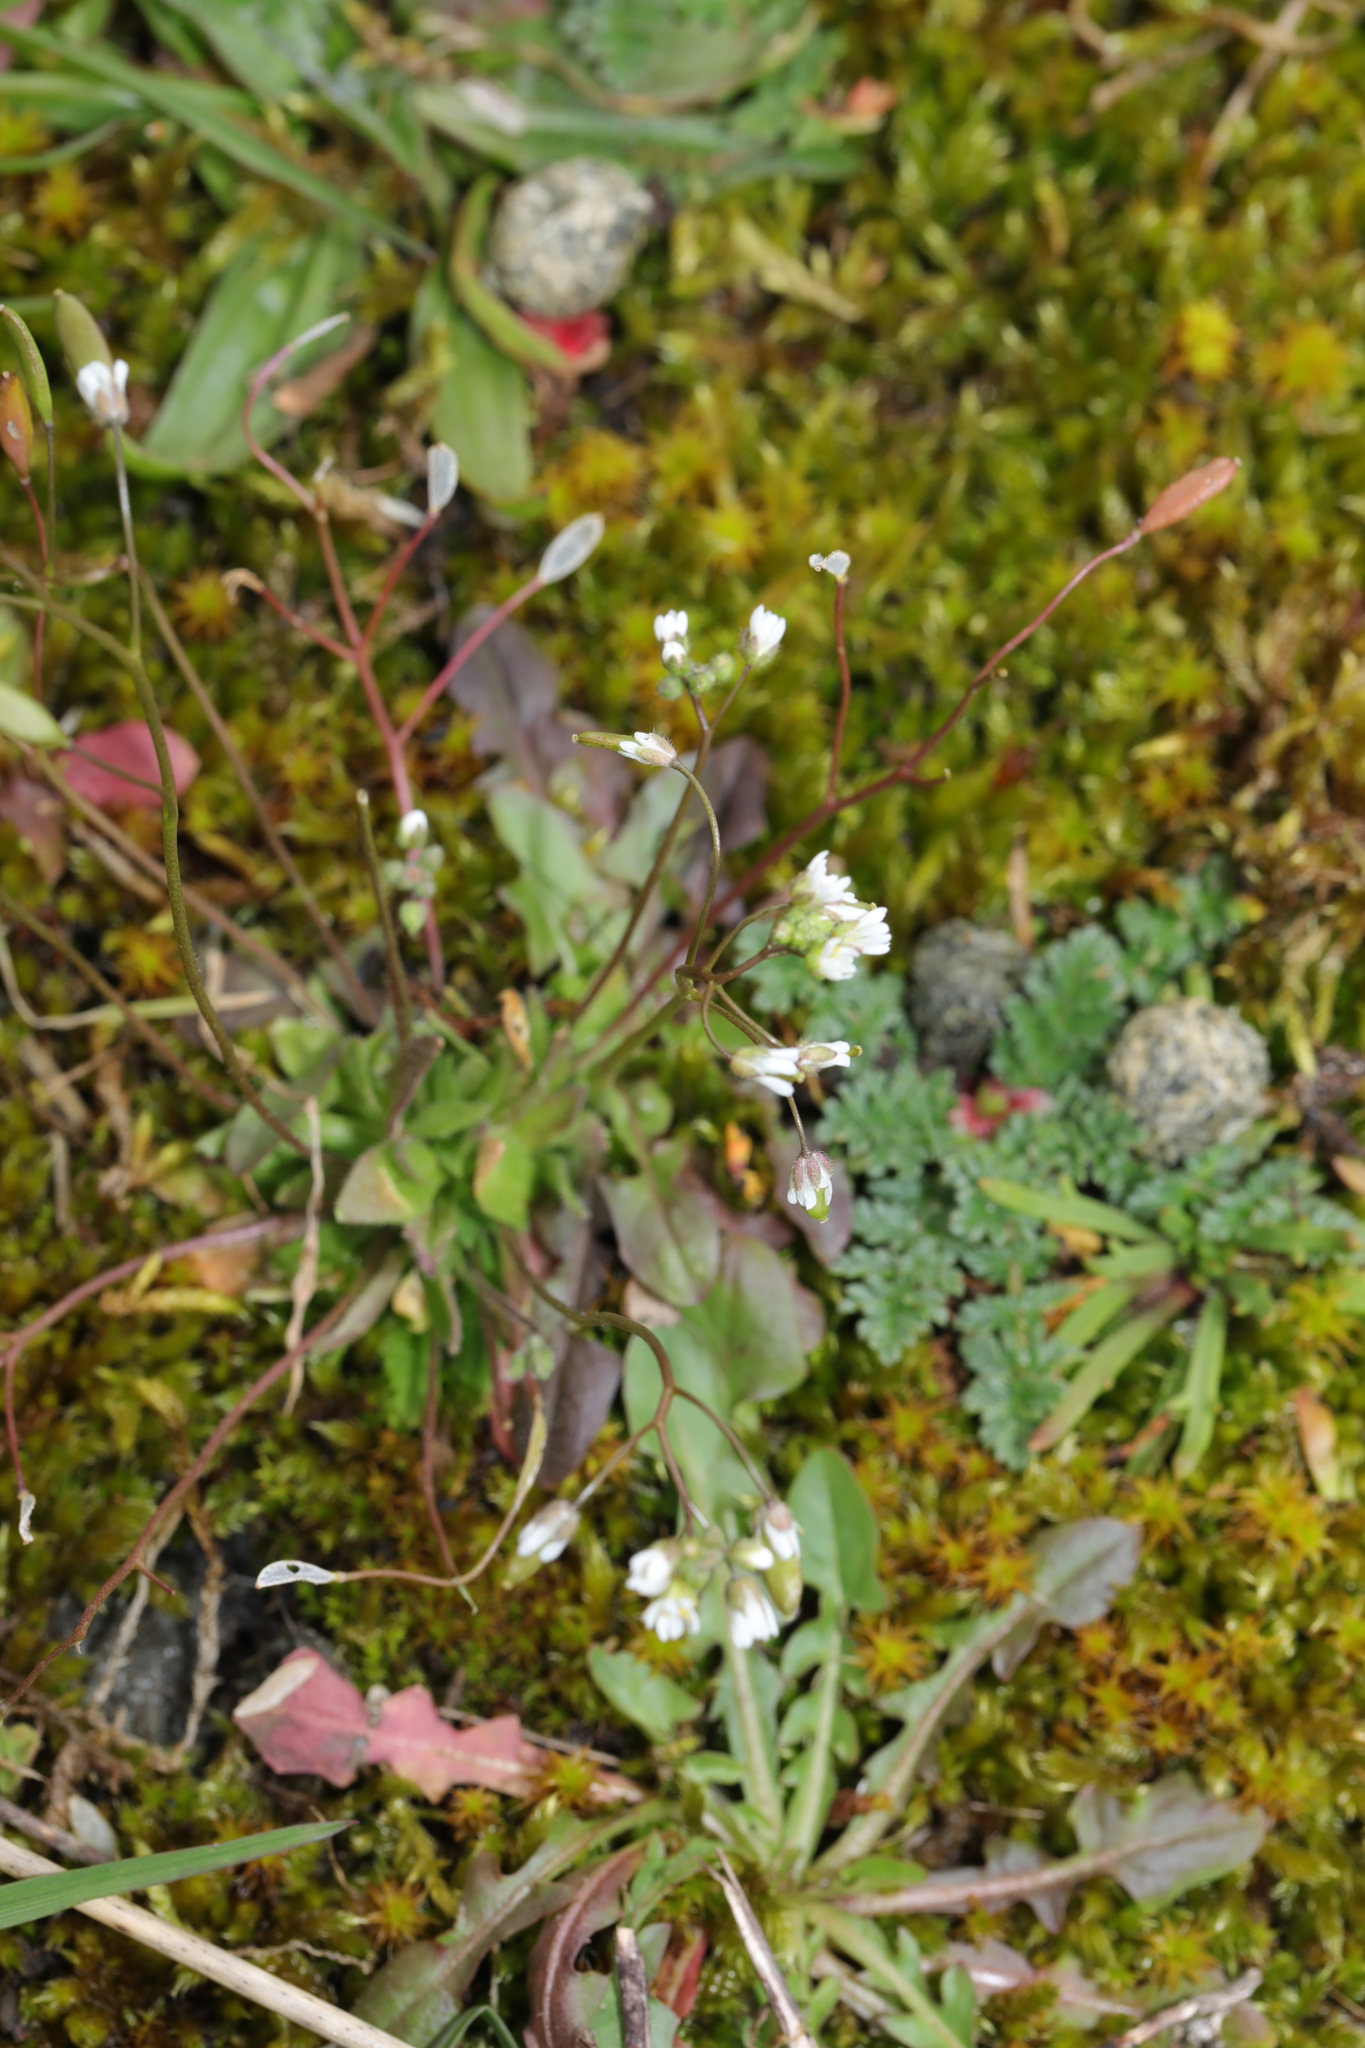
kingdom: Plantae
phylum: Tracheophyta
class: Magnoliopsida
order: Brassicales
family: Brassicaceae
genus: Draba
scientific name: Draba verna
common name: Spring draba
